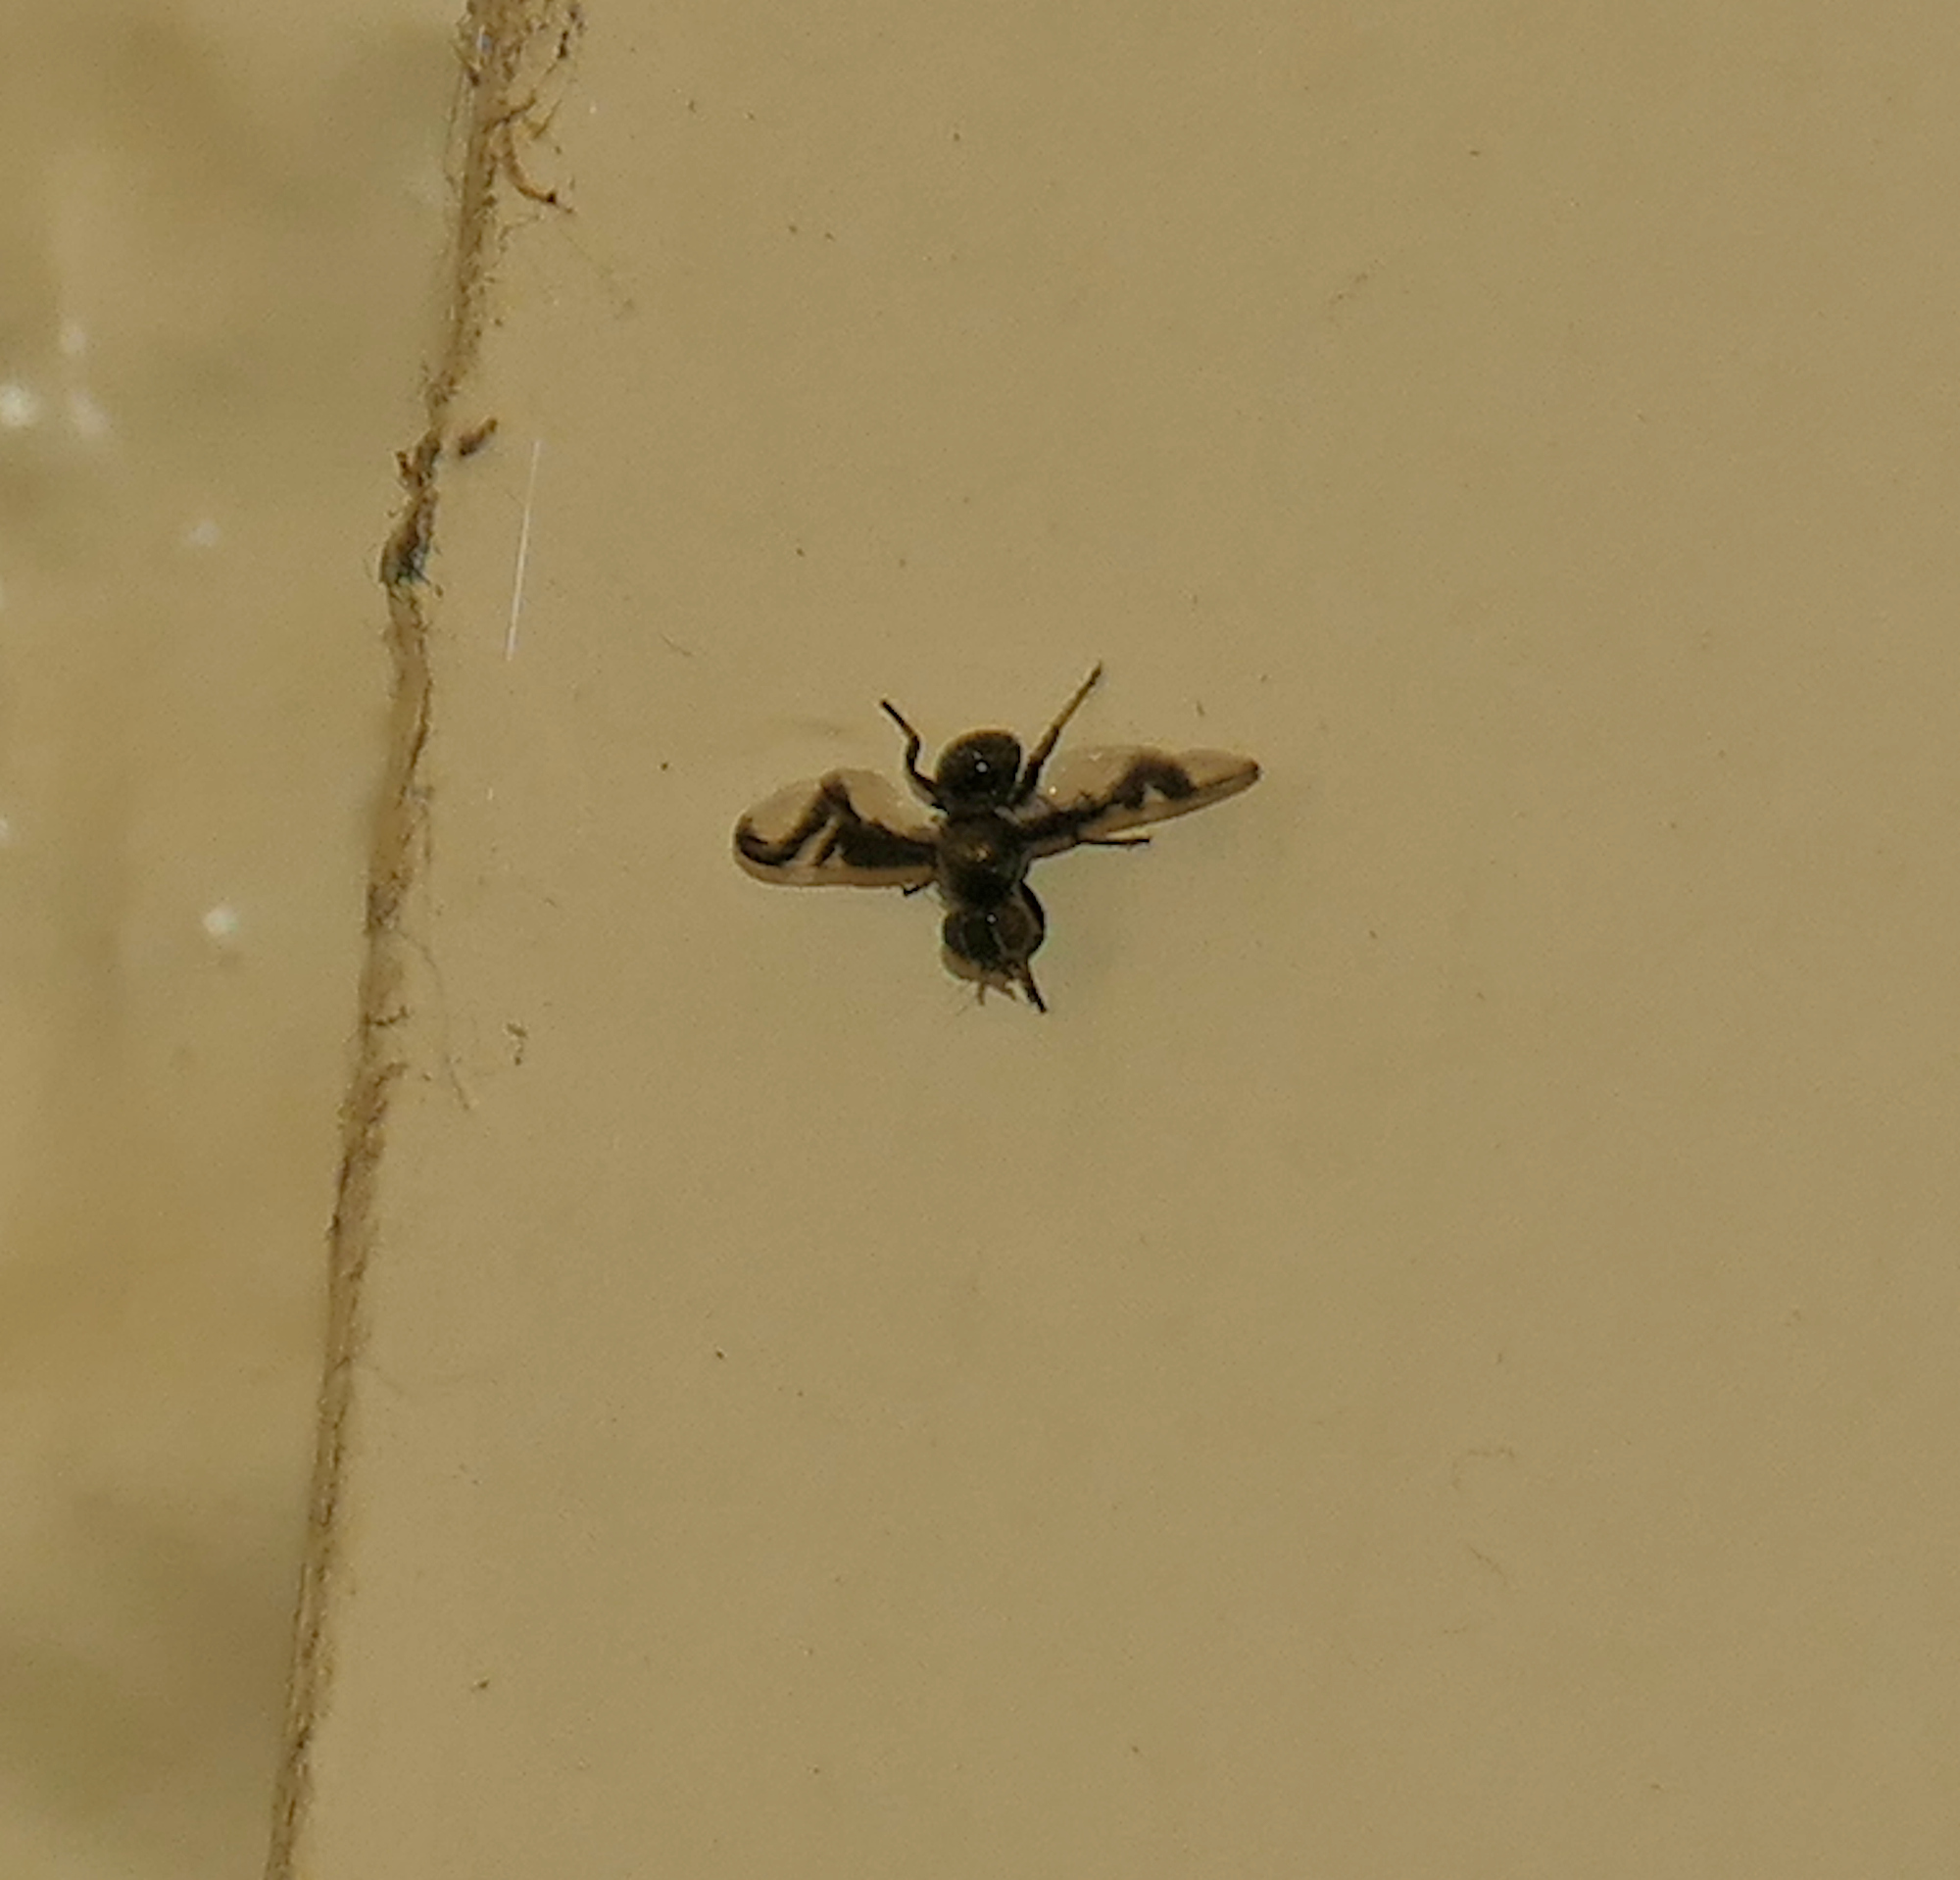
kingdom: Animalia
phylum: Arthropoda
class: Insecta
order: Diptera
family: Platystomatidae
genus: Rivellia
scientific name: Rivellia wulpiana
